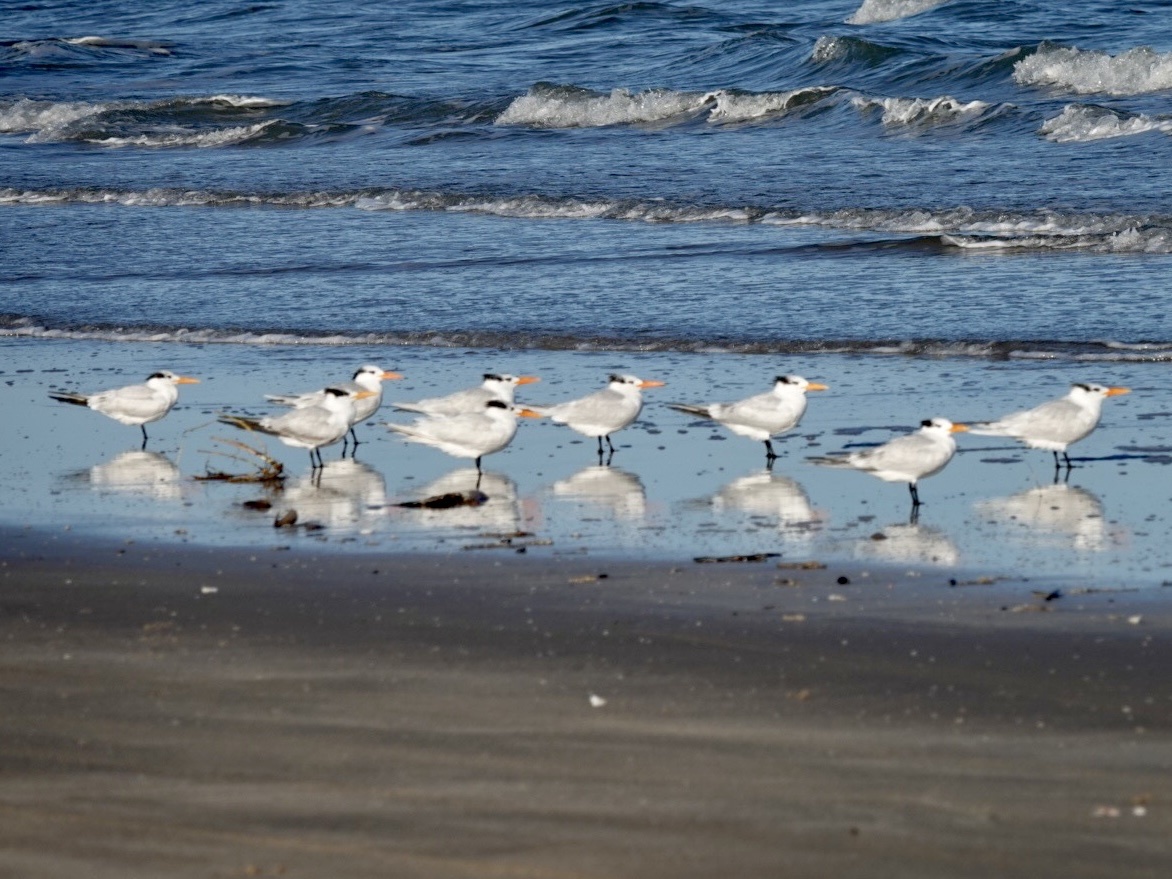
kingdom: Animalia
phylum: Chordata
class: Aves
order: Charadriiformes
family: Laridae
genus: Thalasseus
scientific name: Thalasseus maximus
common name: Royal tern
